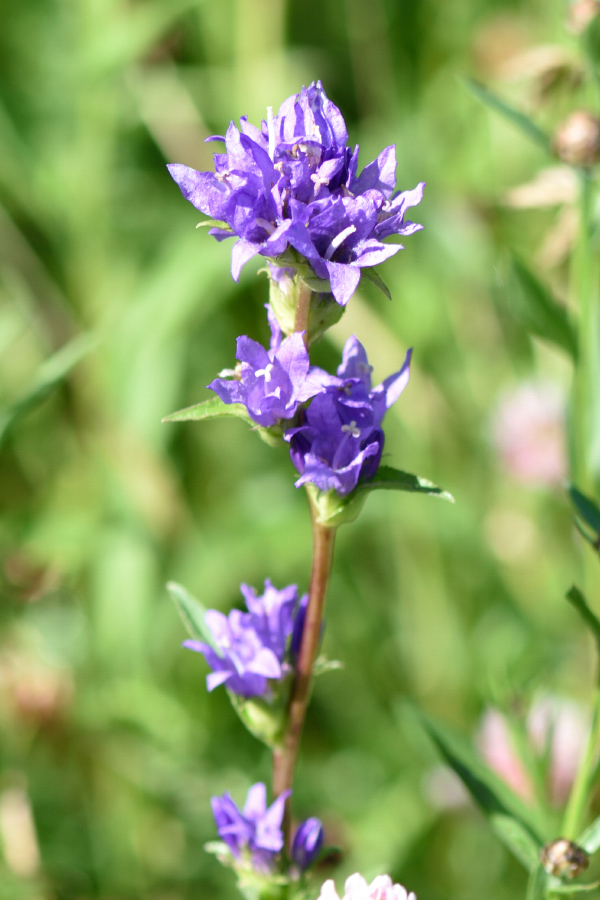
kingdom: Plantae
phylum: Tracheophyta
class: Magnoliopsida
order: Asterales
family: Campanulaceae
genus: Campanula
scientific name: Campanula glomerata
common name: Clustered bellflower
